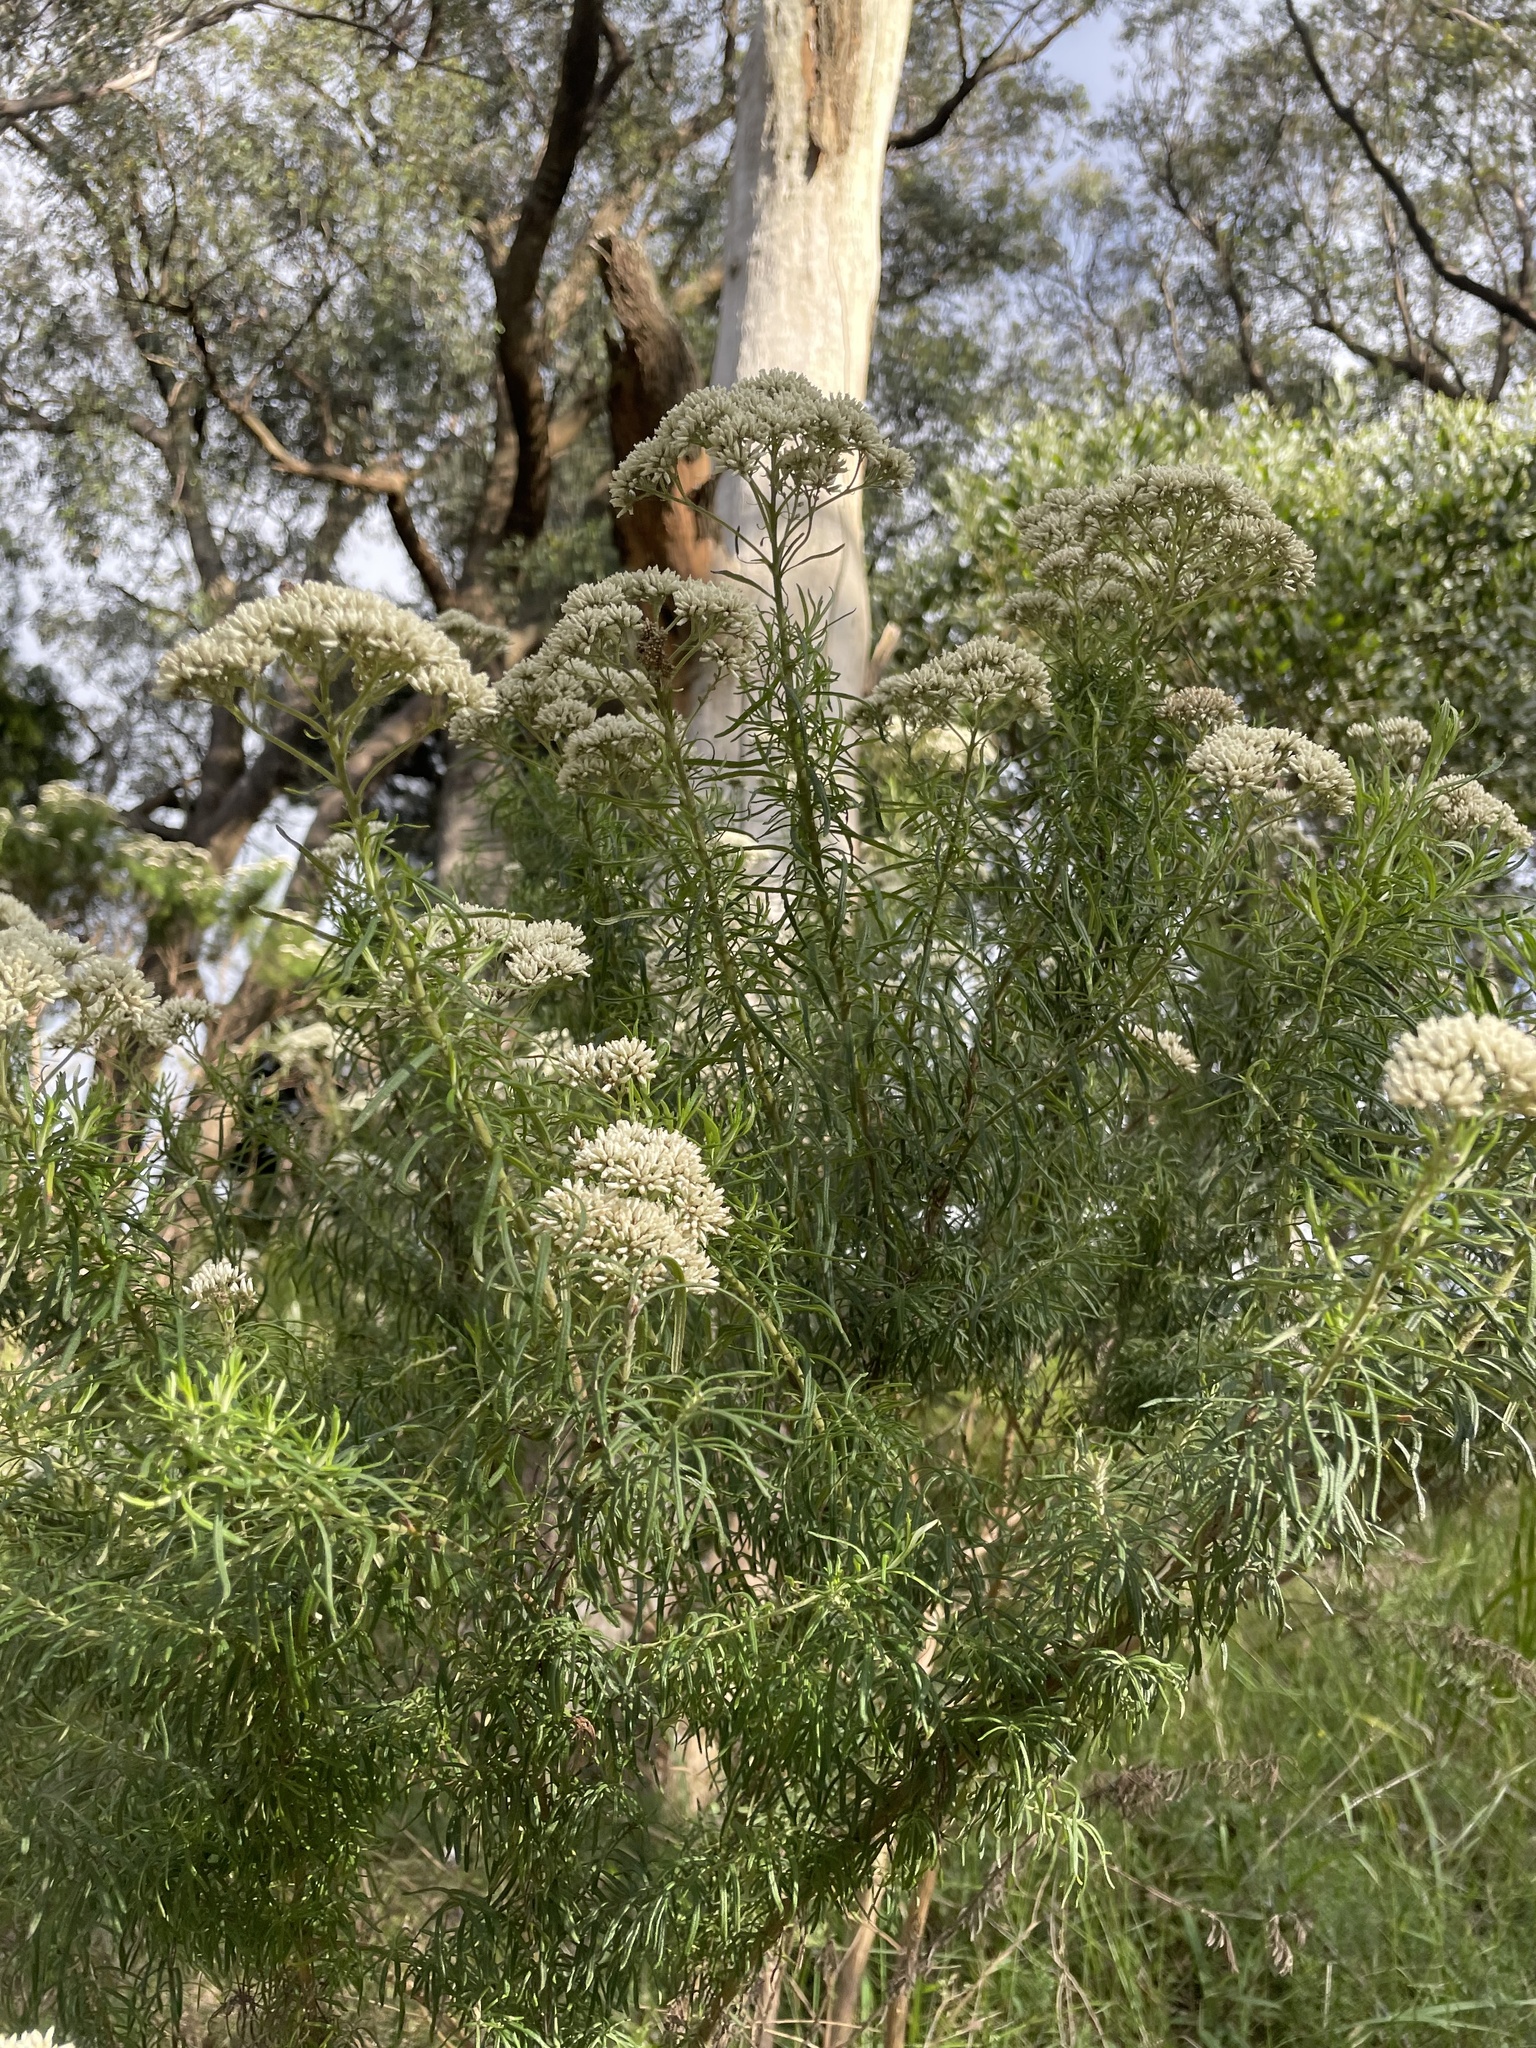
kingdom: Plantae
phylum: Tracheophyta
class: Magnoliopsida
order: Asterales
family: Asteraceae
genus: Cassinia
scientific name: Cassinia aculeata
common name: Australian tauhinu
